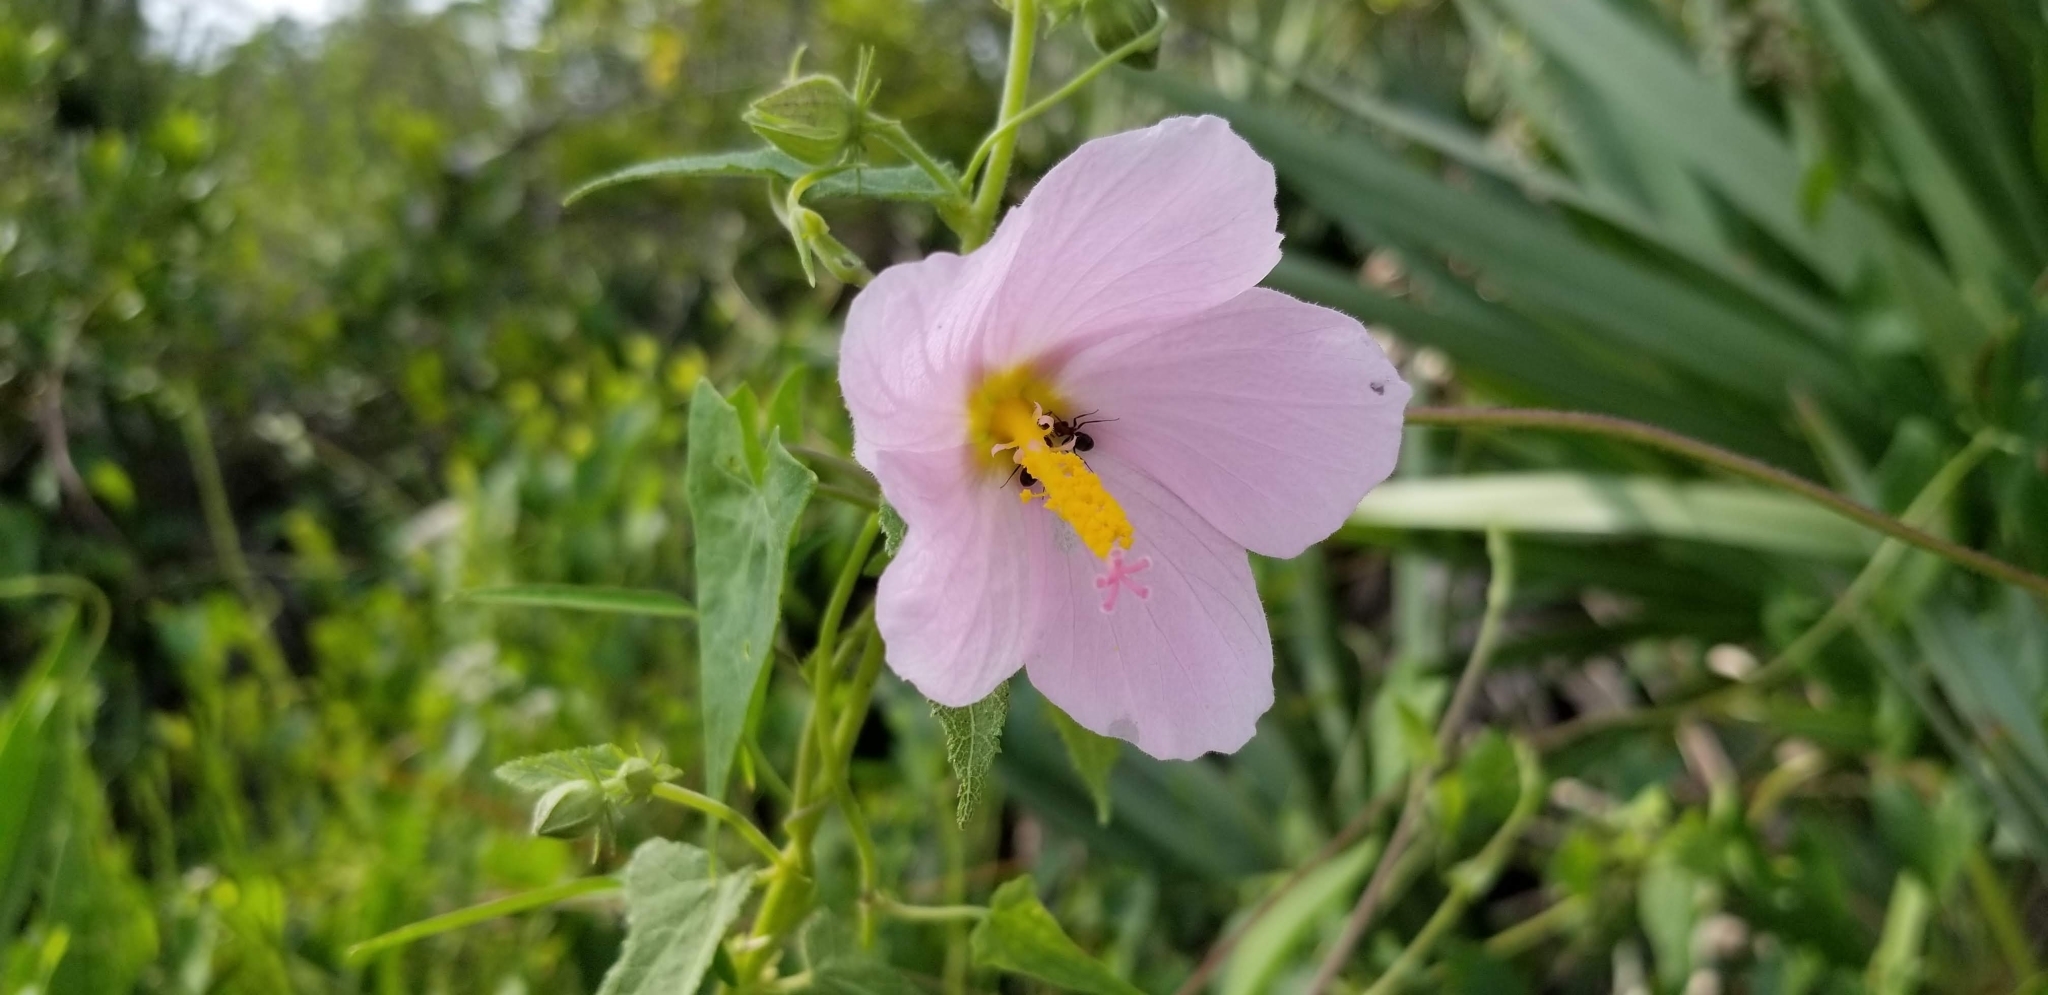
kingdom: Plantae
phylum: Tracheophyta
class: Magnoliopsida
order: Malvales
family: Malvaceae
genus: Kosteletzkya
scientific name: Kosteletzkya pentacarpos
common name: Virginia saltmarsh mallow
